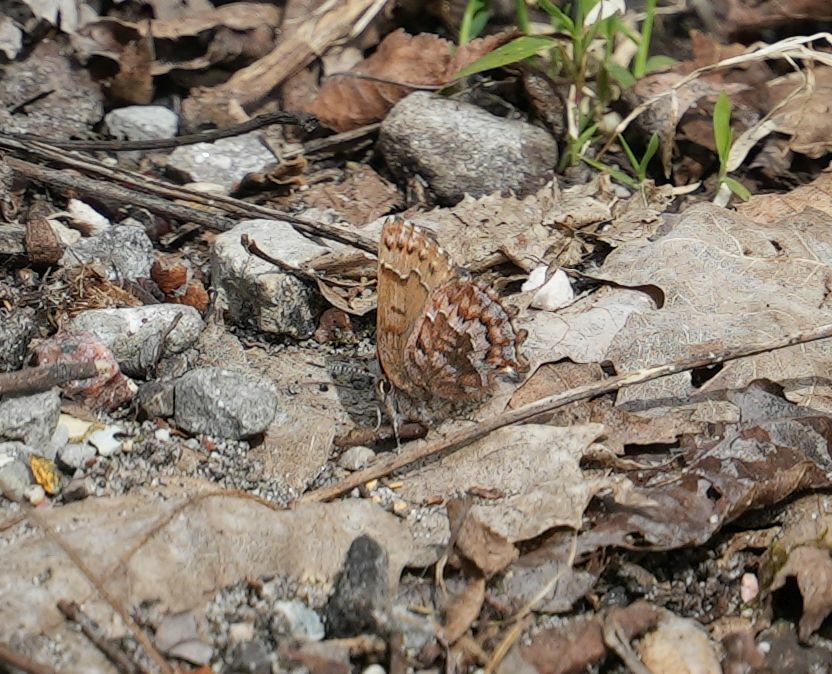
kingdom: Animalia
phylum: Arthropoda
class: Insecta
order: Lepidoptera
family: Lycaenidae
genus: Incisalia
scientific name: Incisalia niphon
